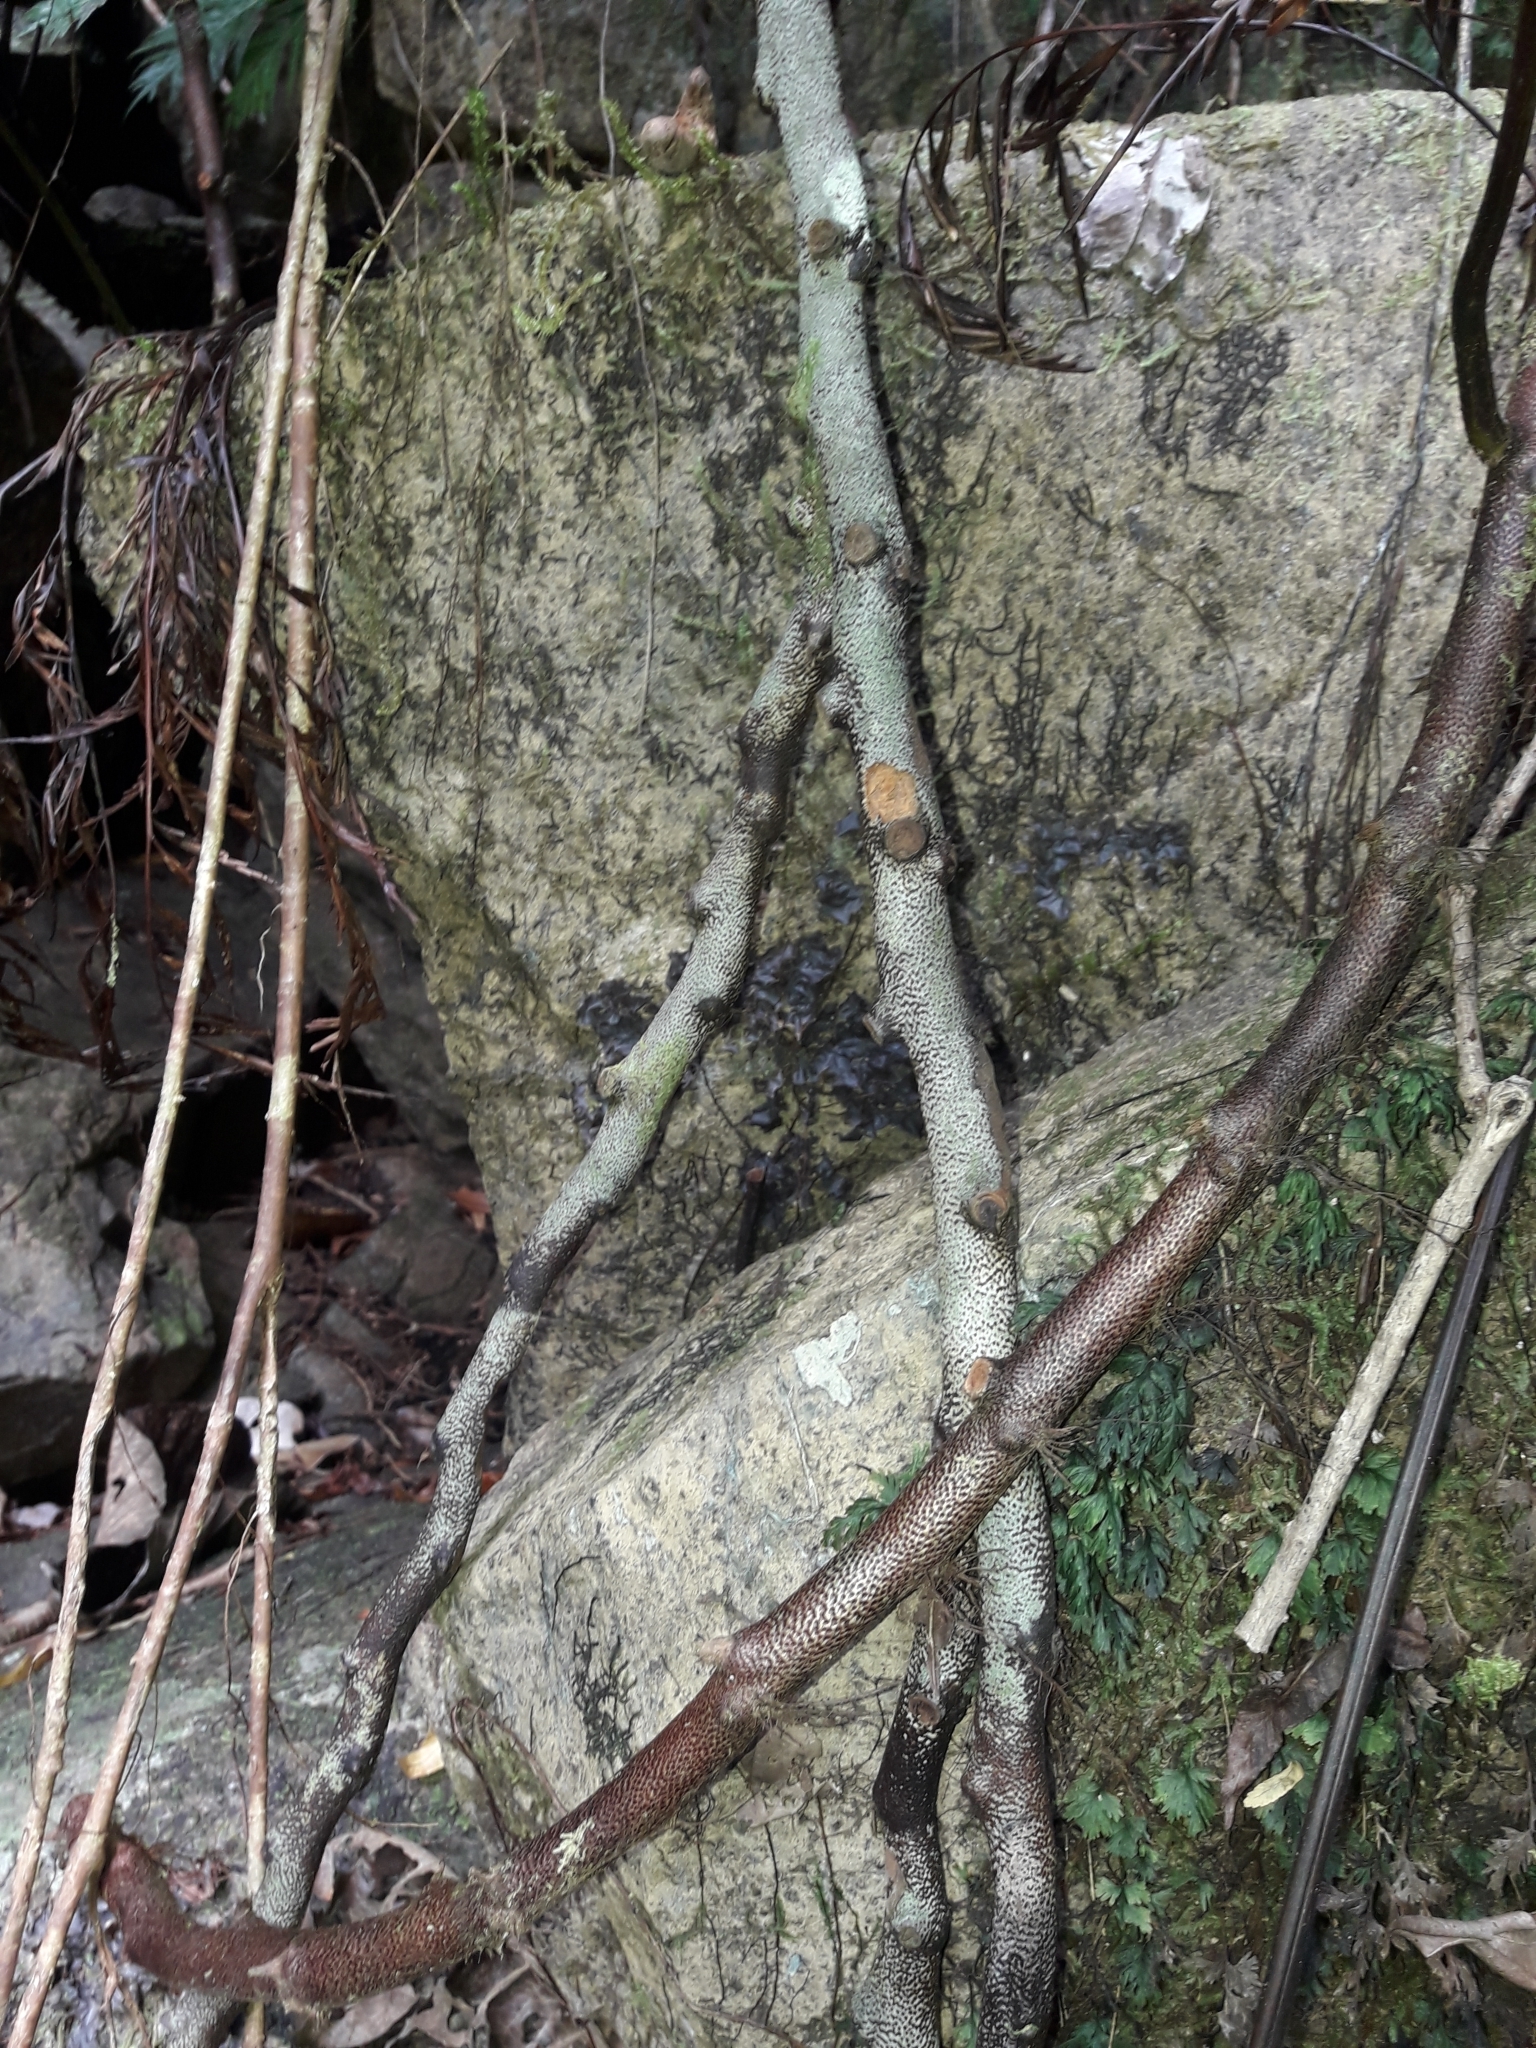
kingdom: Plantae
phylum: Tracheophyta
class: Polypodiopsida
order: Polypodiales
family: Davalliaceae
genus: Davallia
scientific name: Davallia solida
